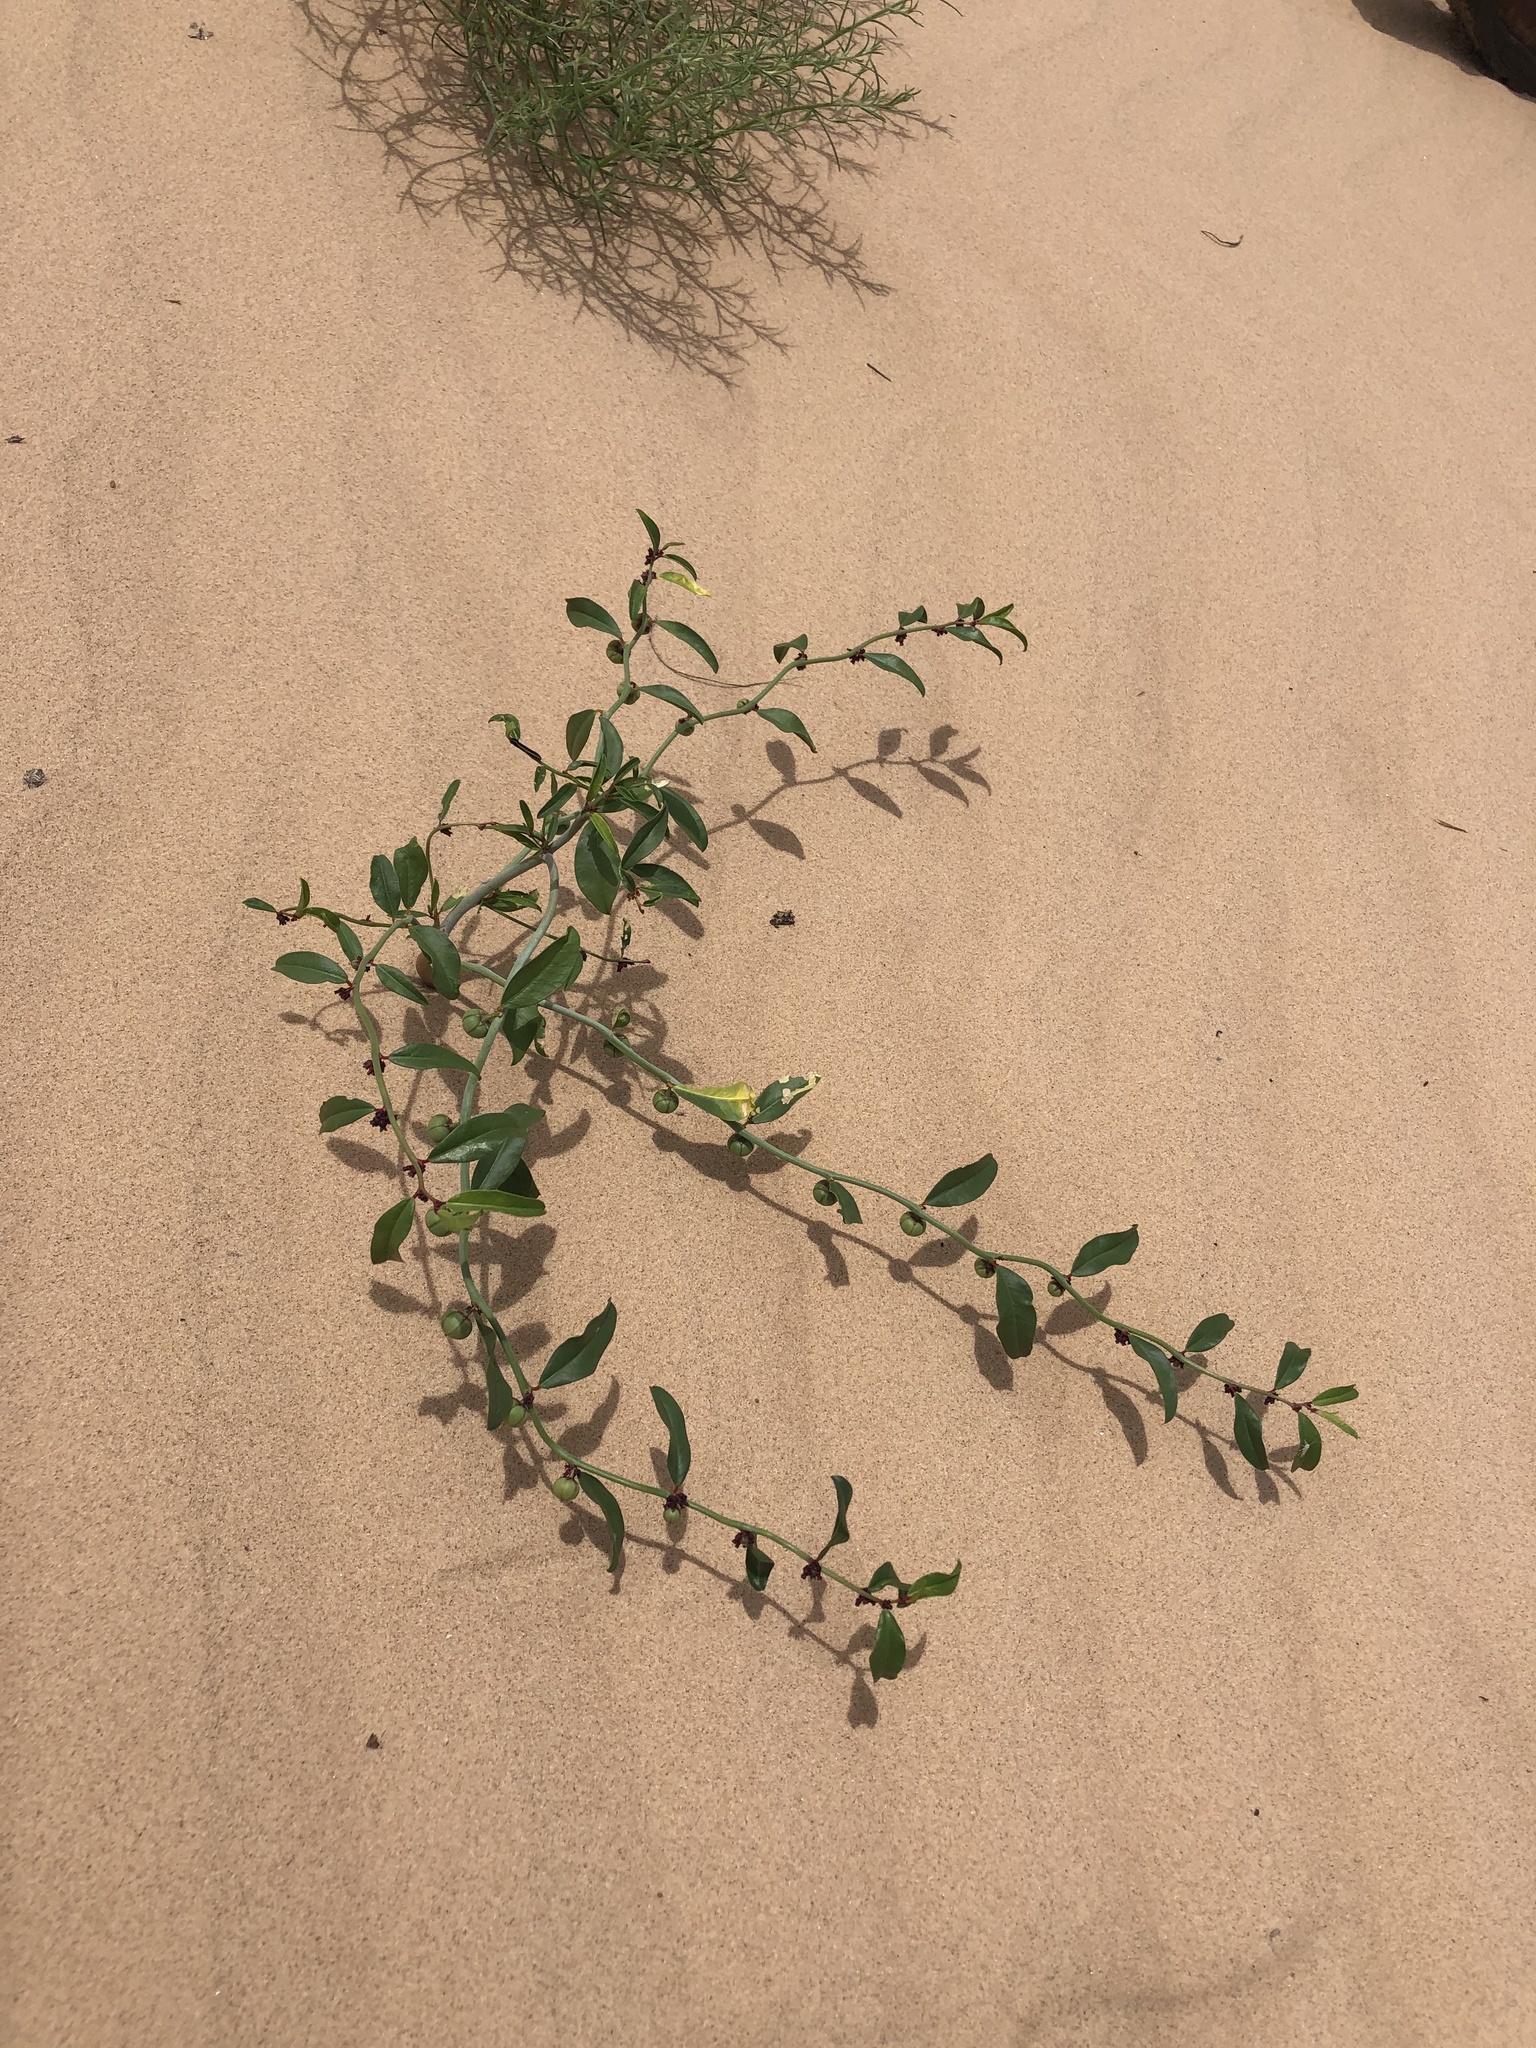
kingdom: Plantae
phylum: Tracheophyta
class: Magnoliopsida
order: Malpighiales
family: Phyllanthaceae
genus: Phyllanthus
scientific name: Phyllanthus warnockii
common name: Sand reverchonia
